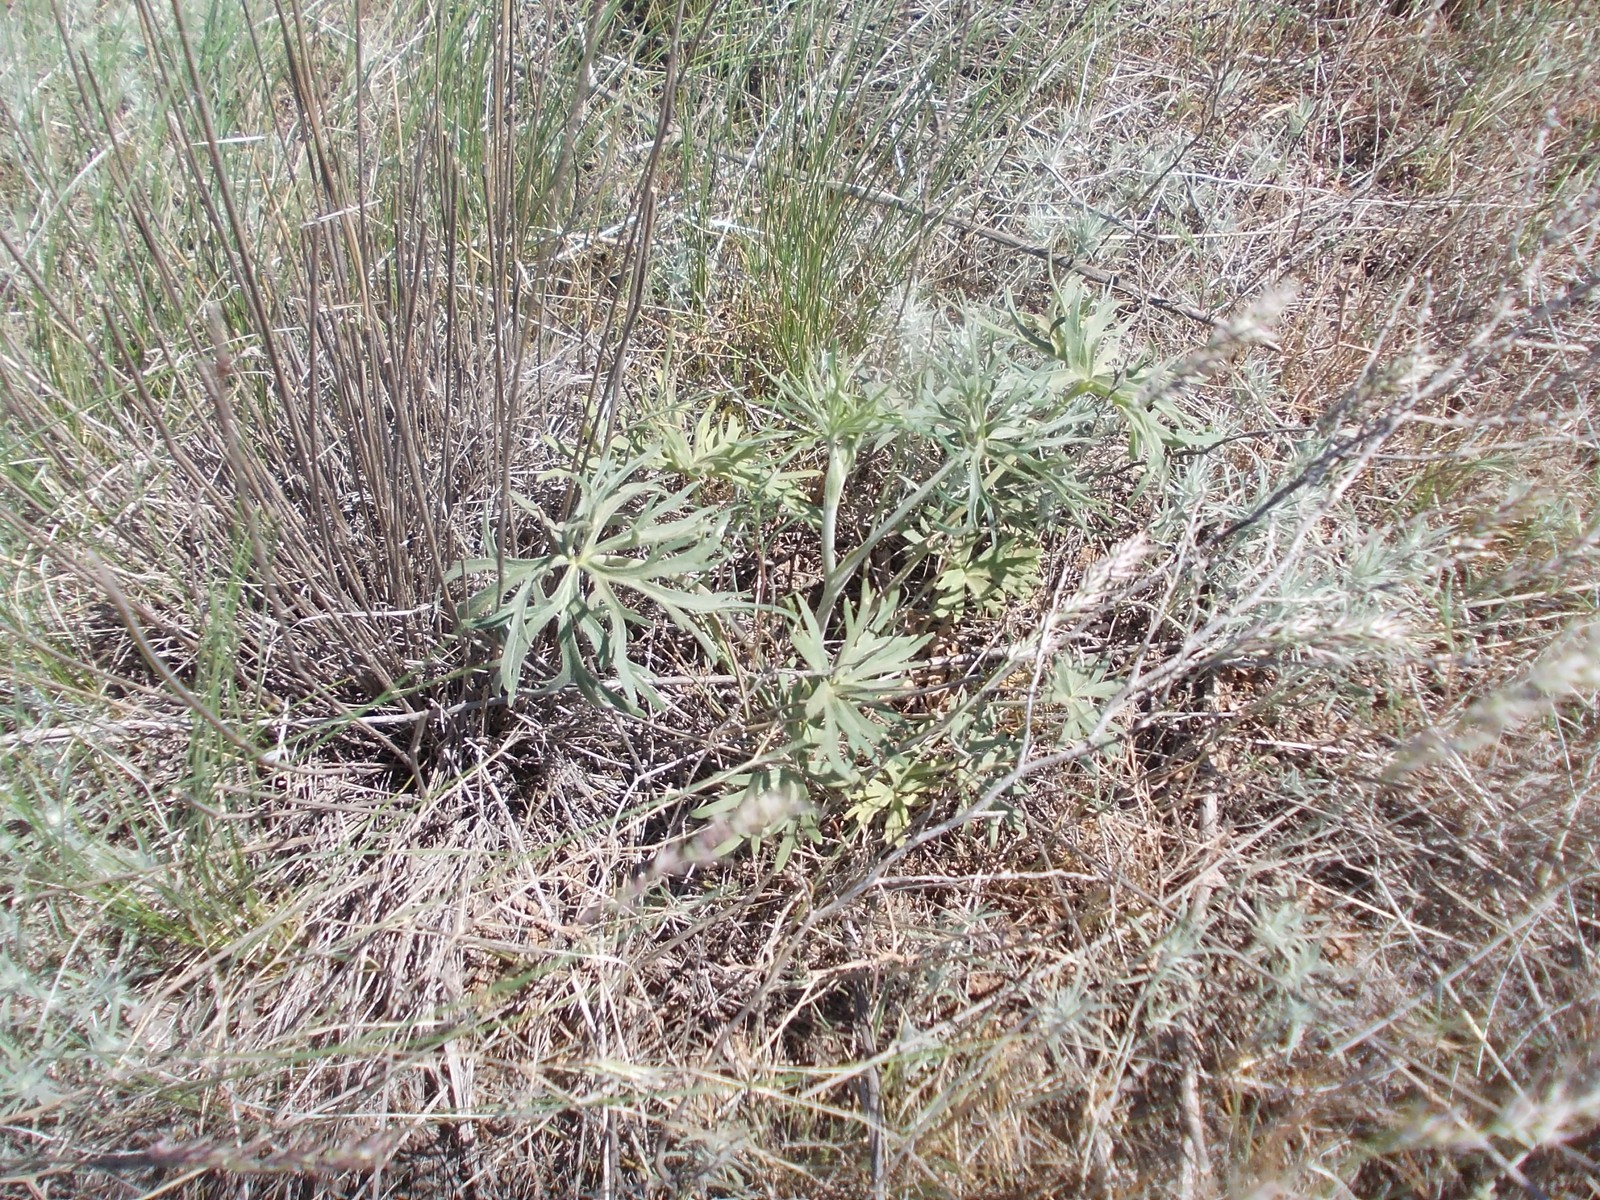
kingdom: Plantae
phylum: Tracheophyta
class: Magnoliopsida
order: Ranunculales
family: Ranunculaceae
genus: Delphinium
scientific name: Delphinium puniceum
